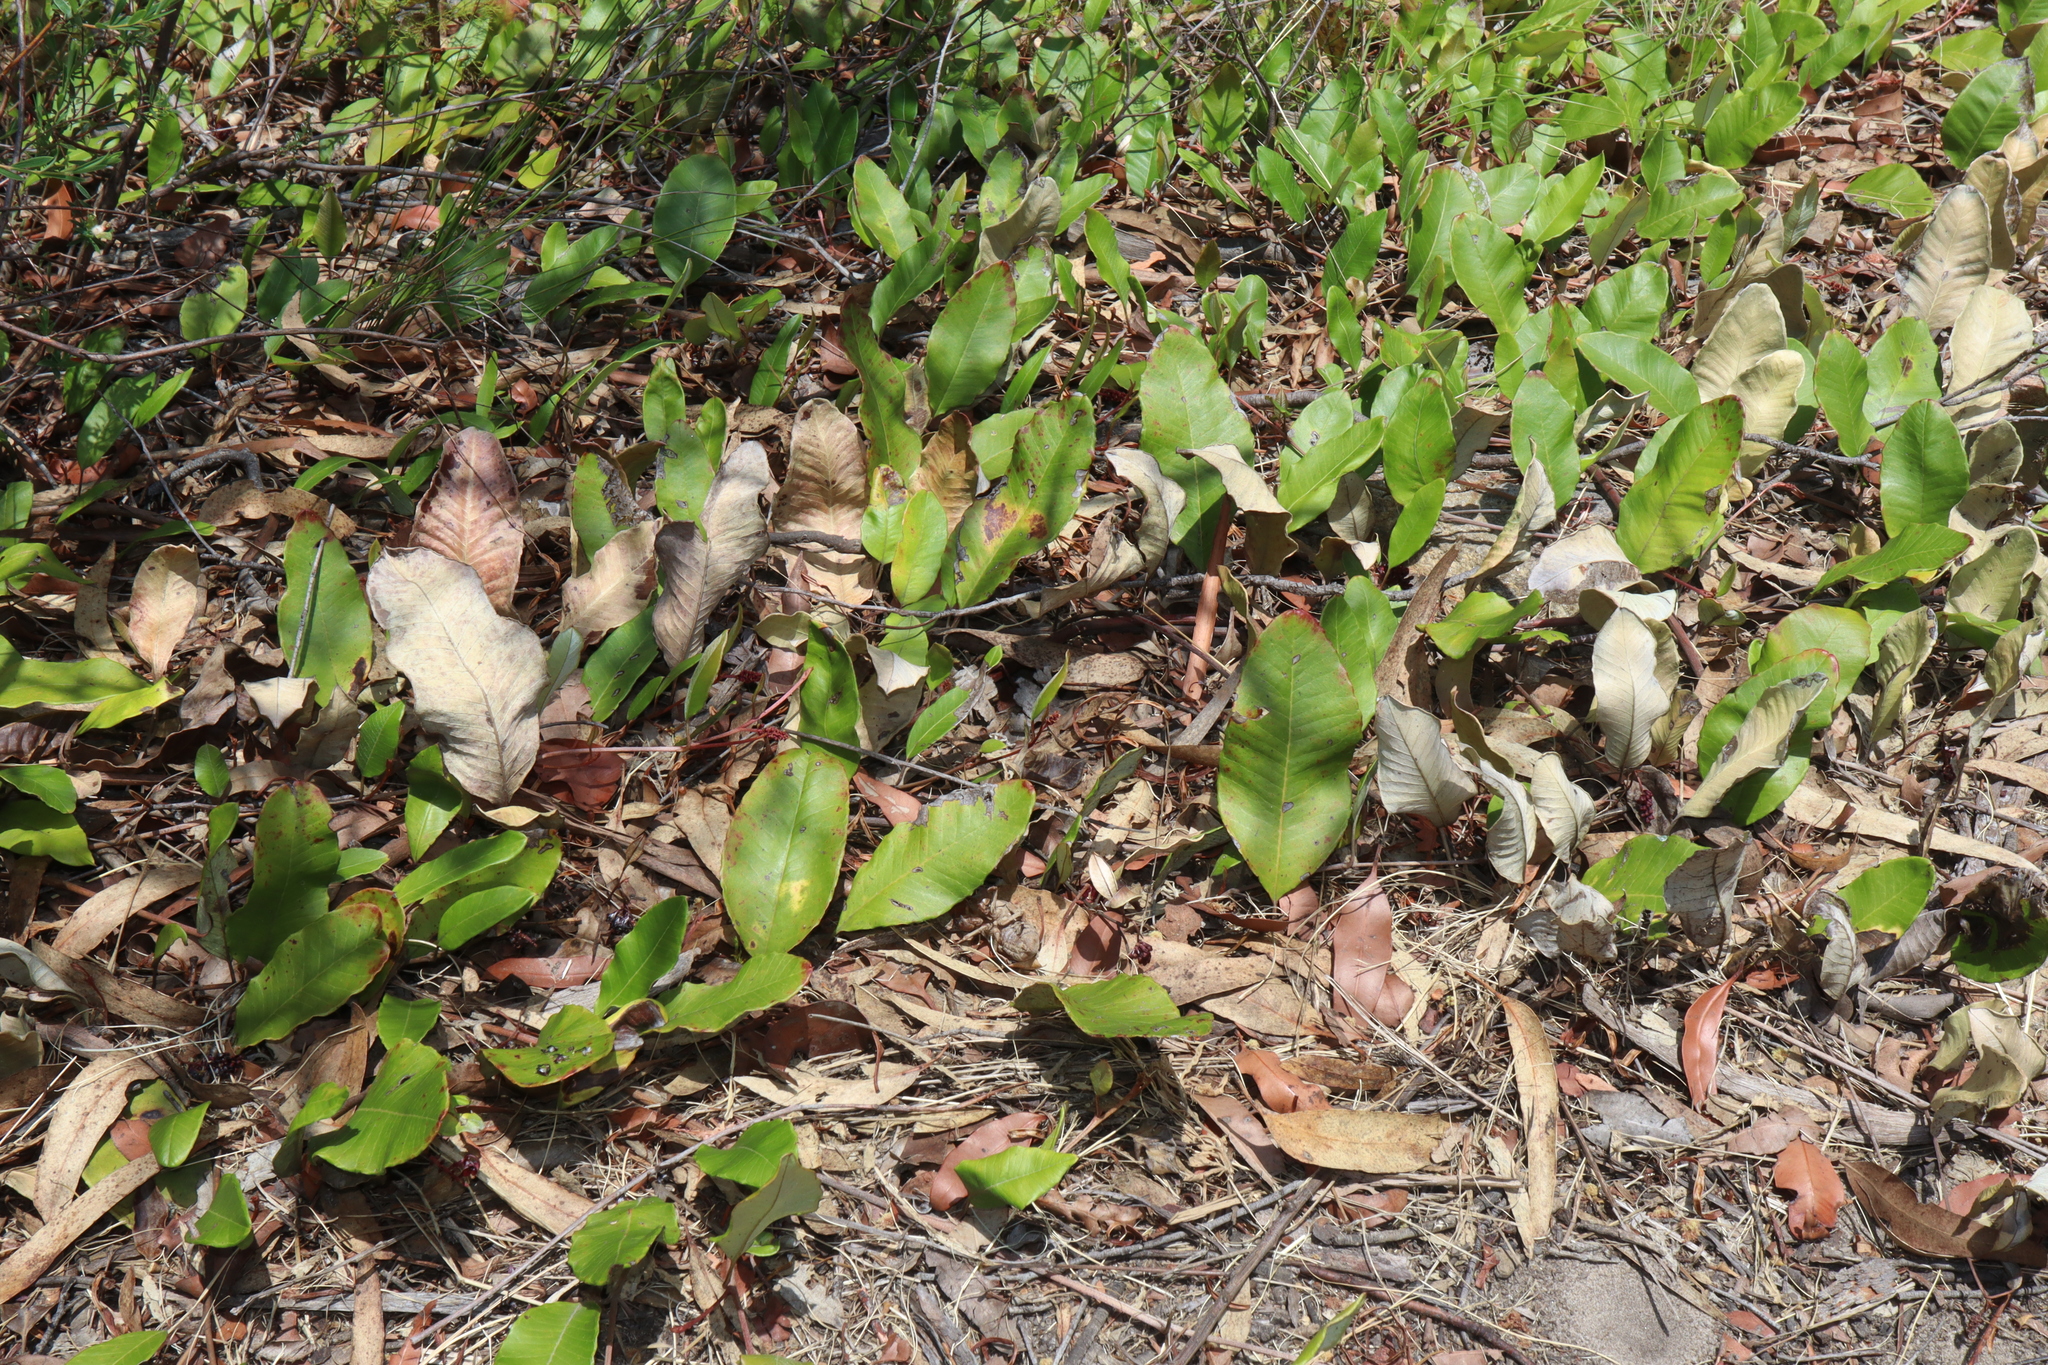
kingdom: Plantae
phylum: Tracheophyta
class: Magnoliopsida
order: Proteales
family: Proteaceae
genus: Grevillea
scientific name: Grevillea laurifolia
